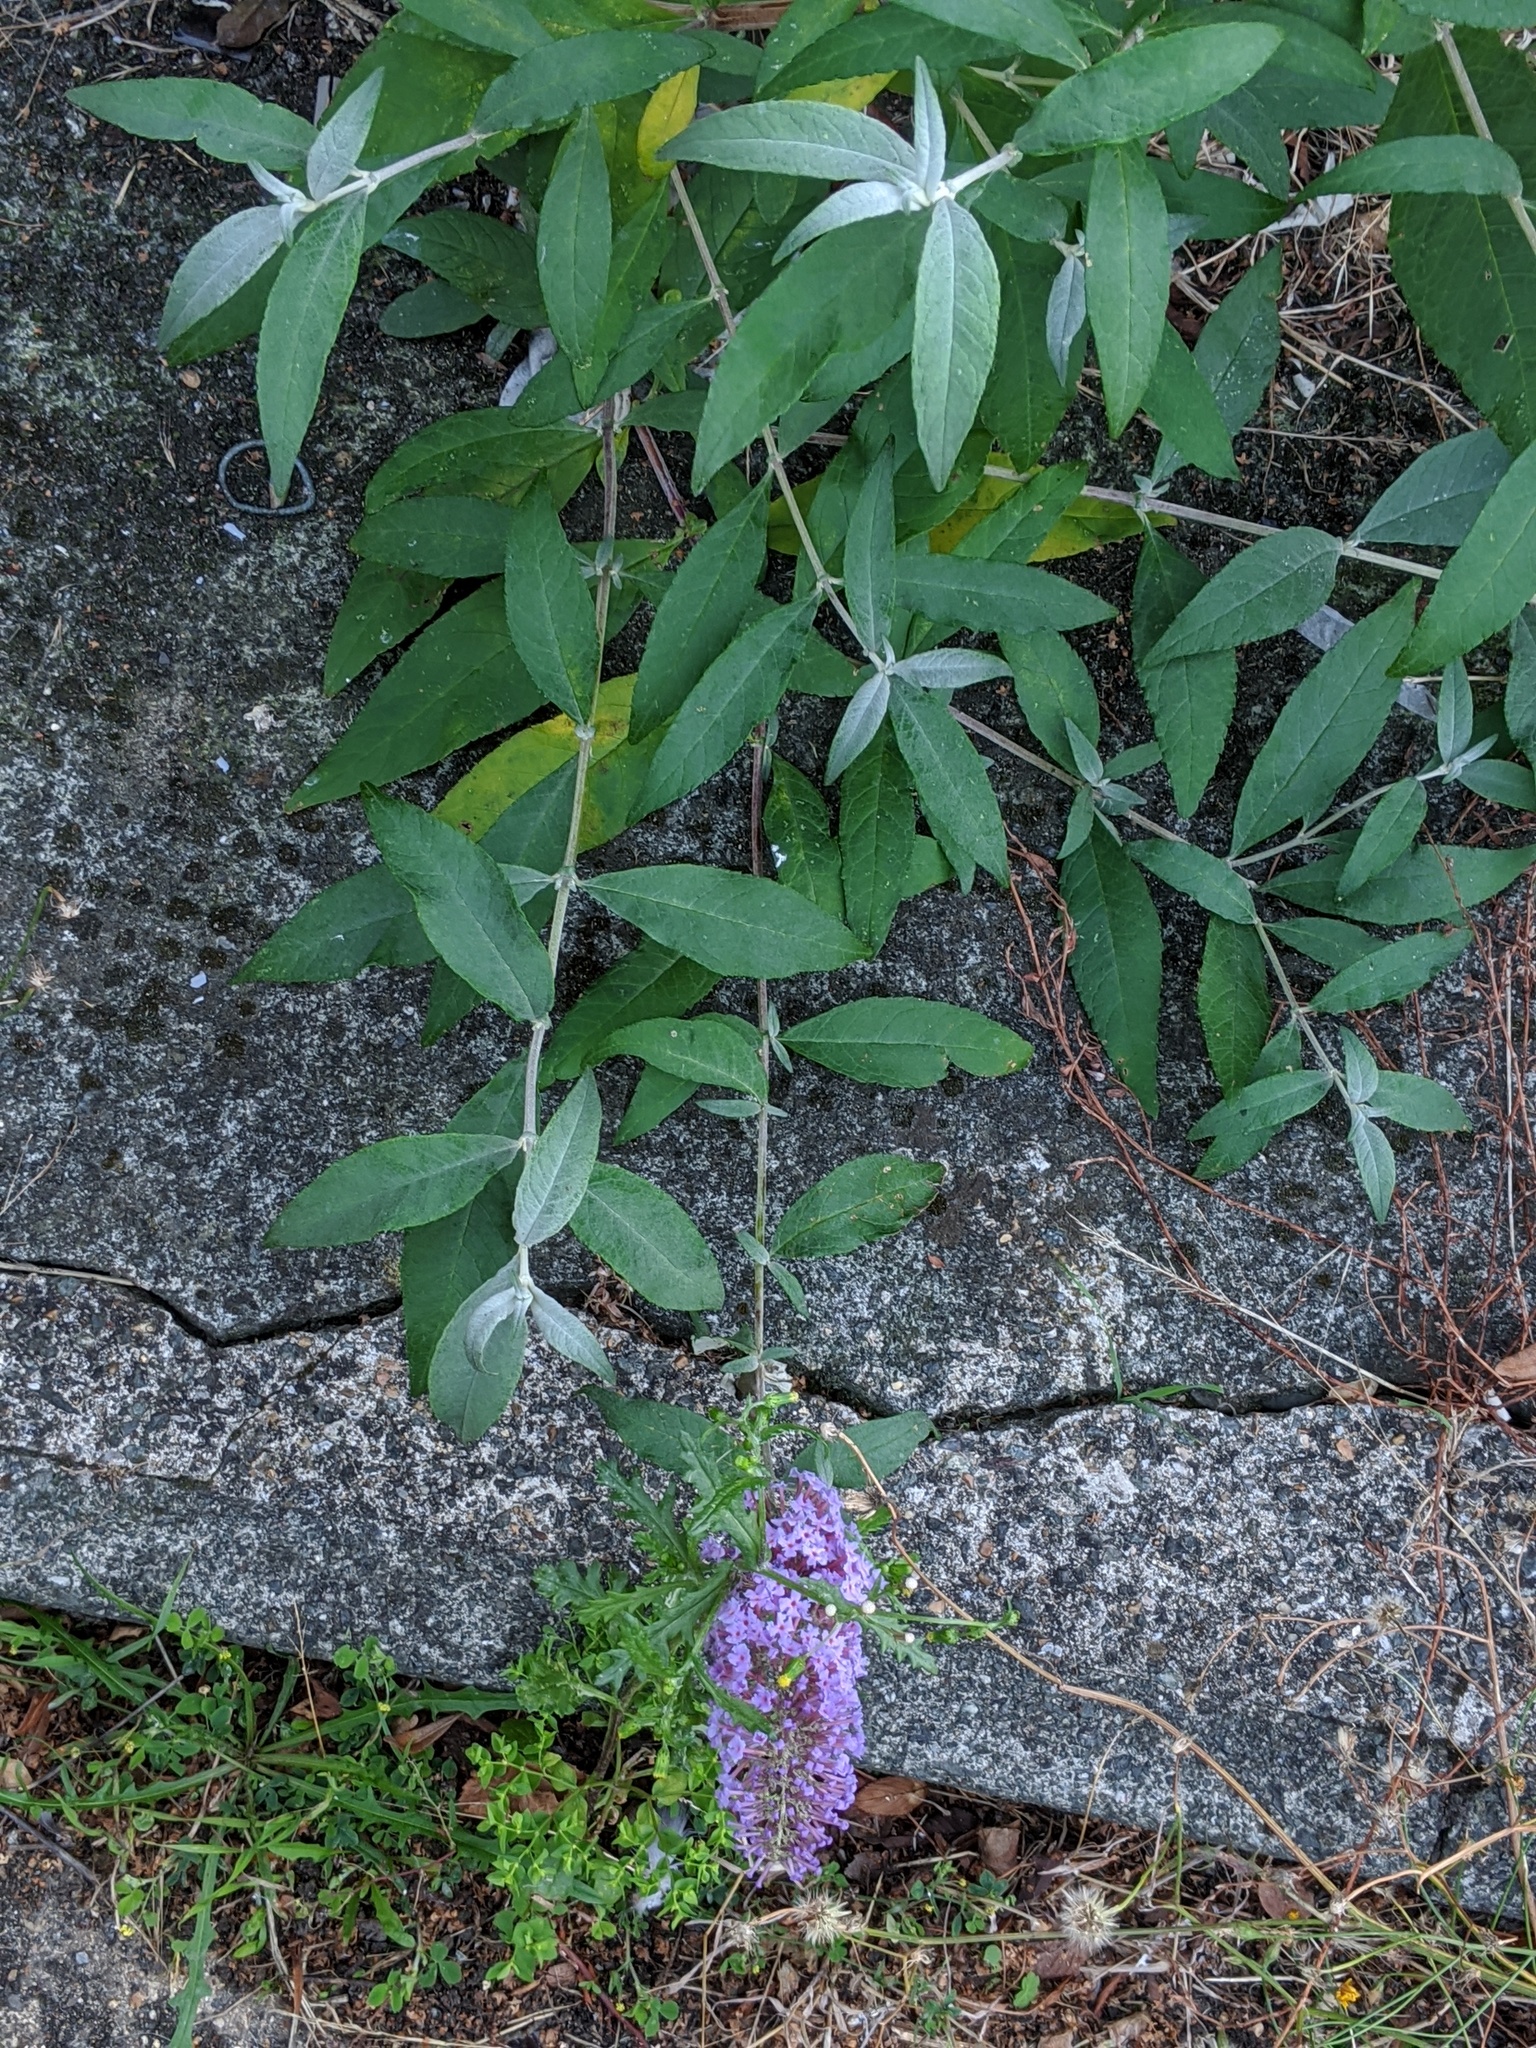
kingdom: Plantae
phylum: Tracheophyta
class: Magnoliopsida
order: Lamiales
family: Scrophulariaceae
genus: Buddleja
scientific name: Buddleja davidii
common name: Butterfly-bush
